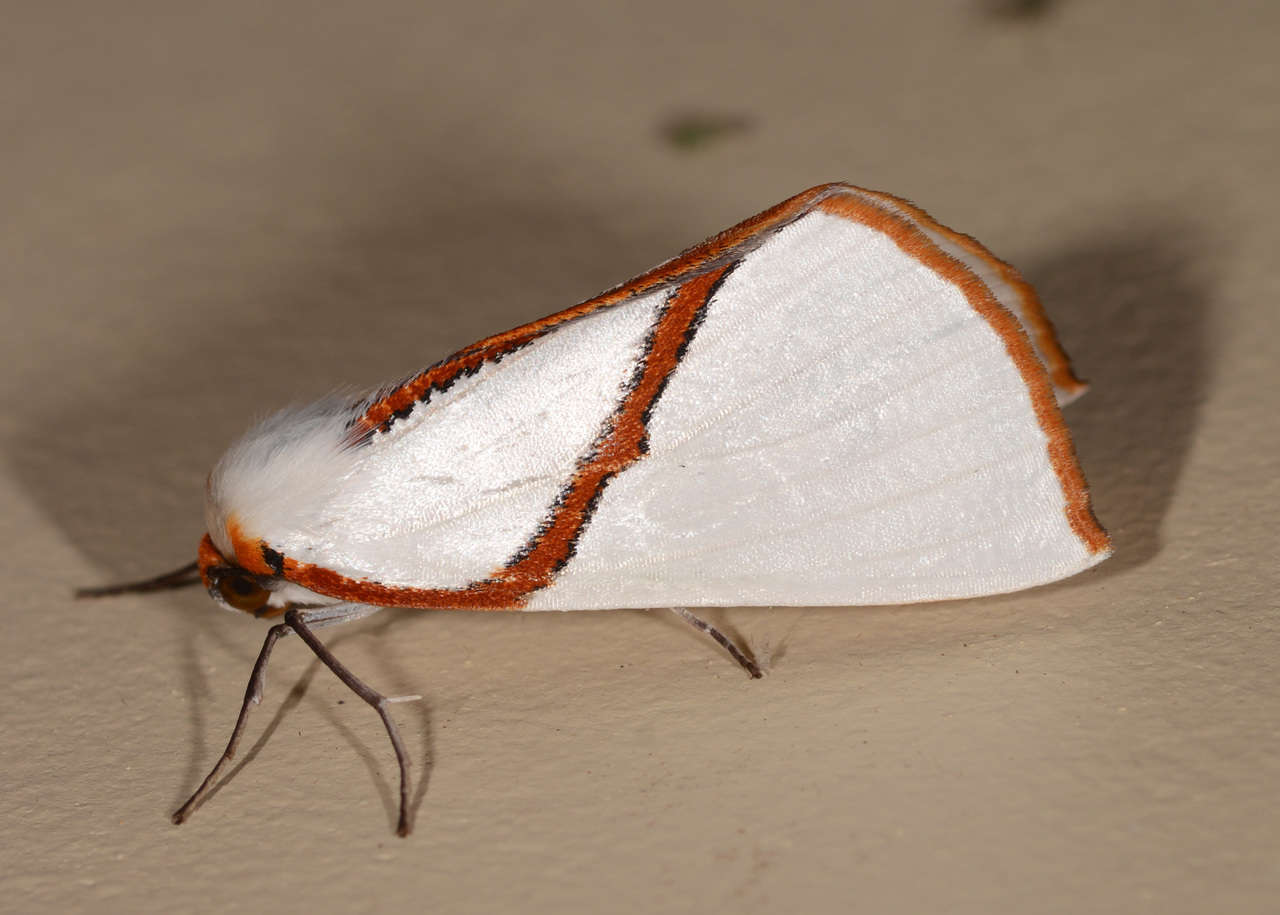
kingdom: Animalia
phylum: Arthropoda
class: Insecta
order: Lepidoptera
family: Geometridae
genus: Thalaina
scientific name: Thalaina selenaea
